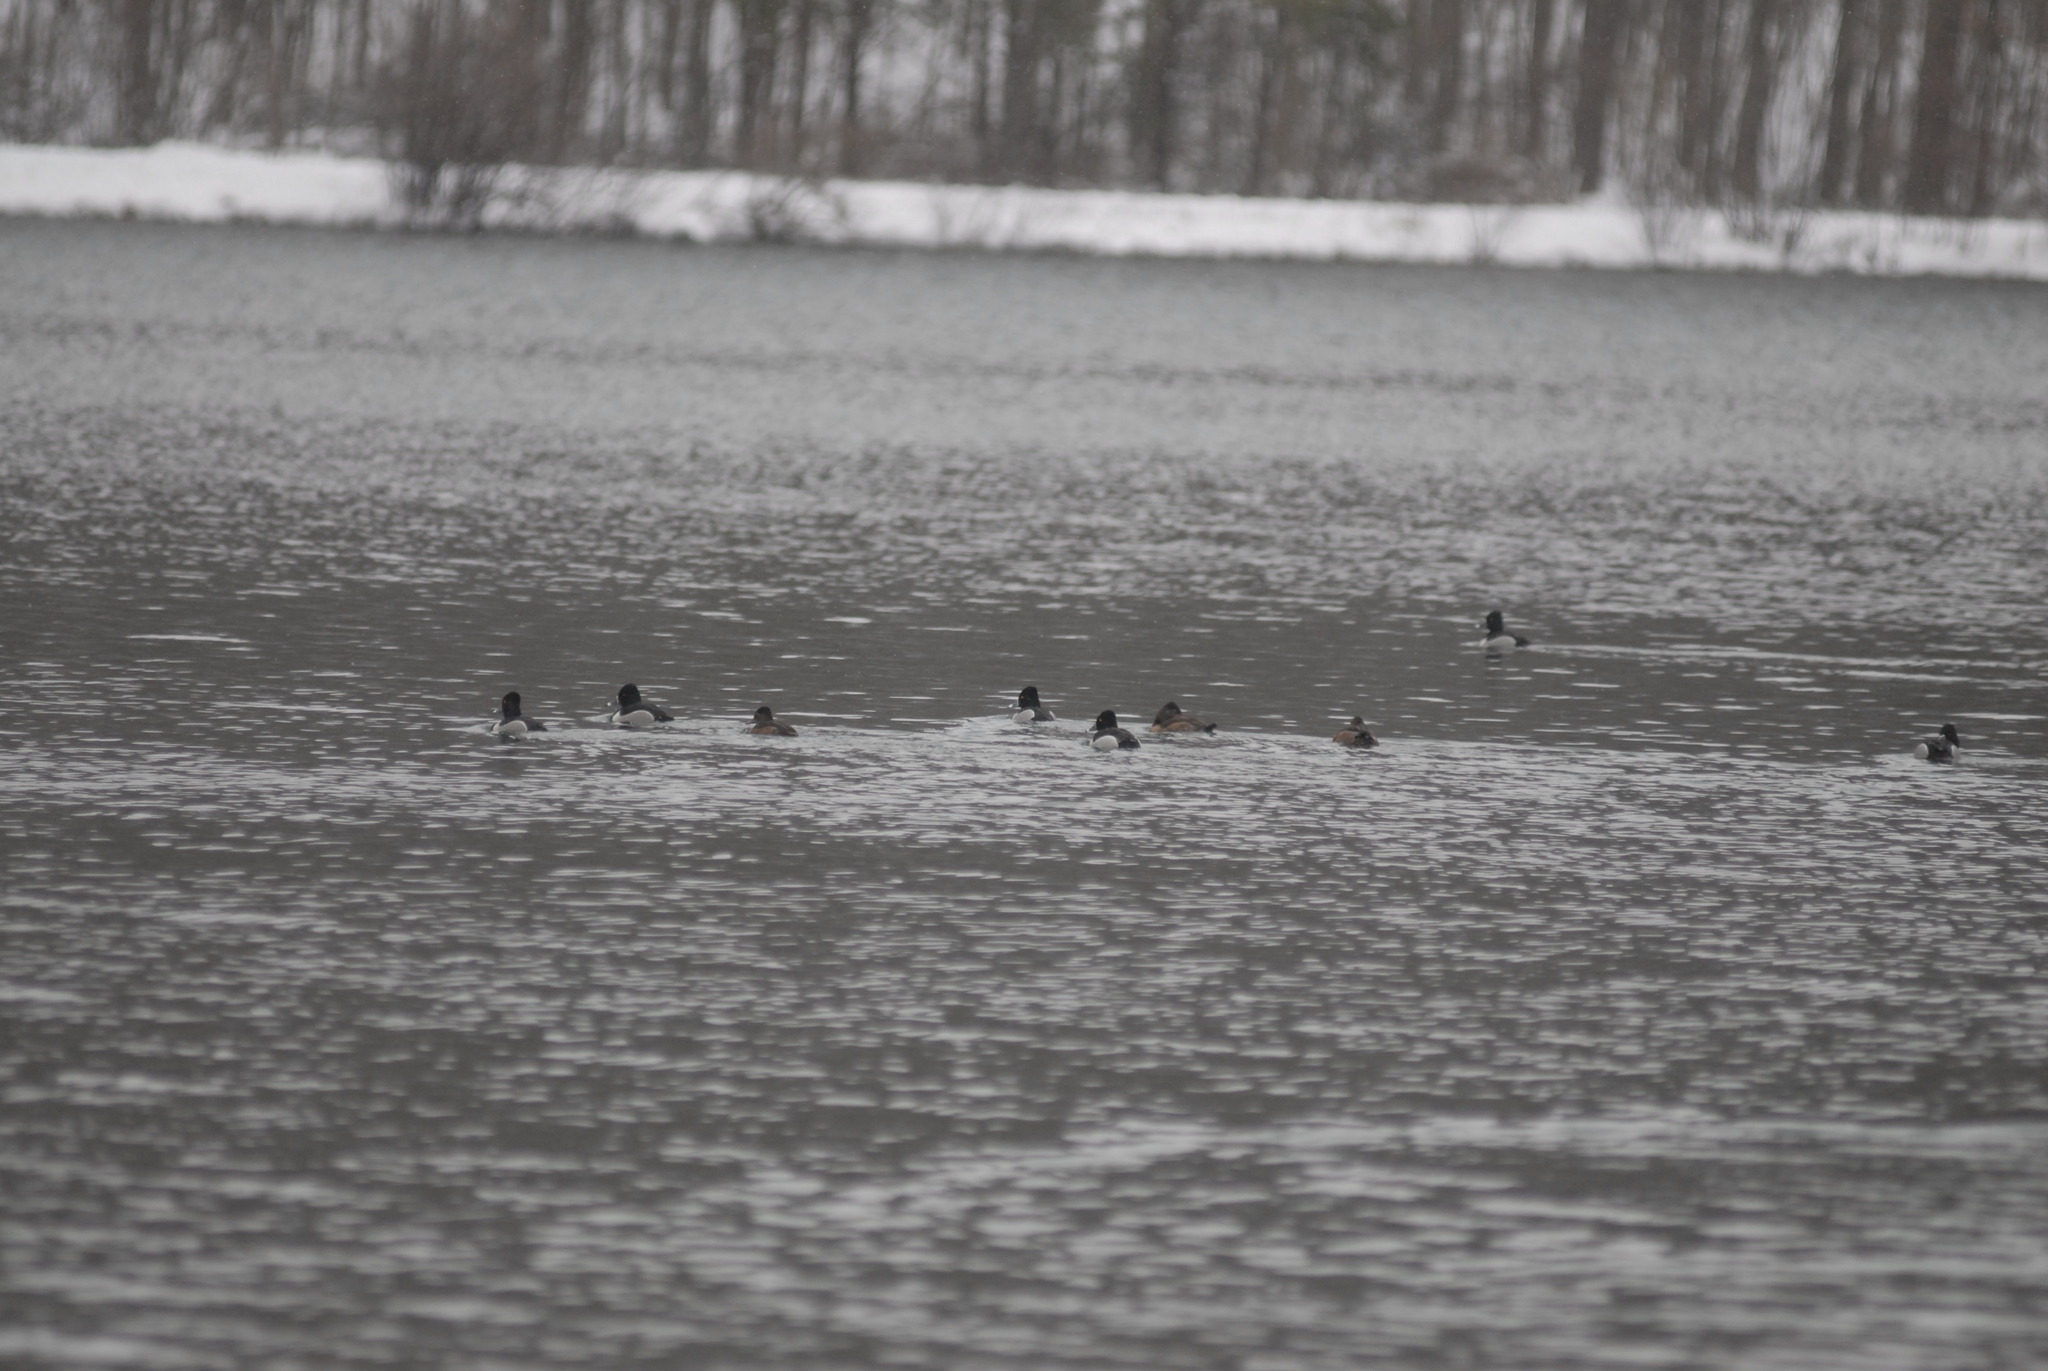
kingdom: Animalia
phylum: Chordata
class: Aves
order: Anseriformes
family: Anatidae
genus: Aythya
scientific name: Aythya collaris
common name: Ring-necked duck
